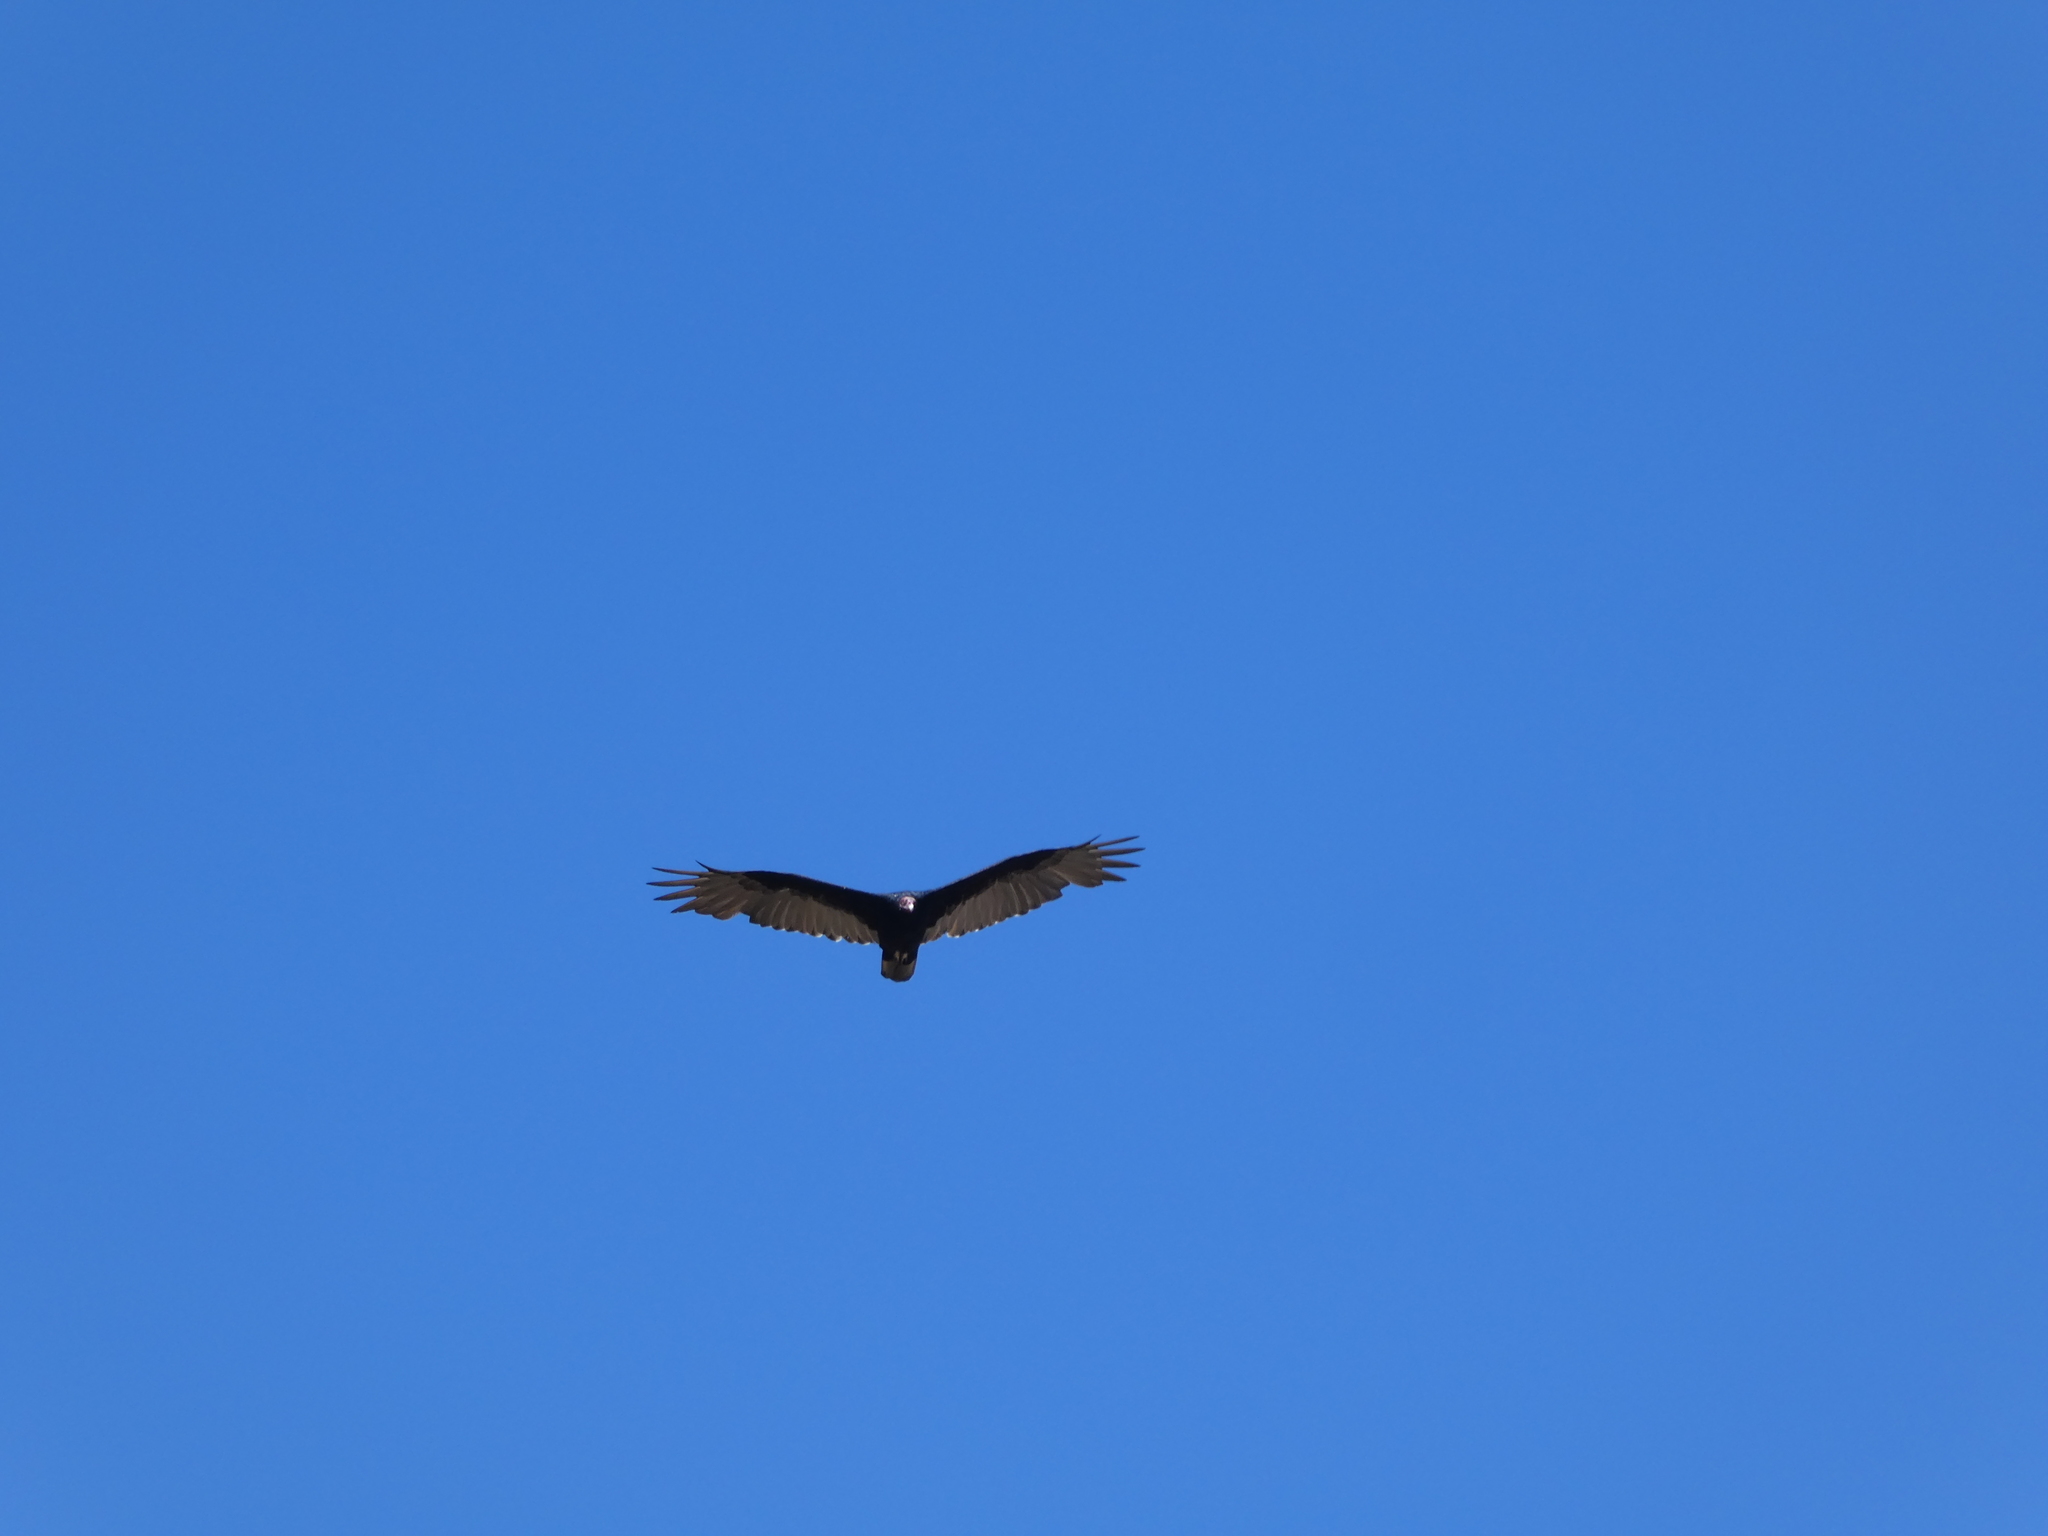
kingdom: Animalia
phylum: Chordata
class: Aves
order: Accipitriformes
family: Cathartidae
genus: Cathartes
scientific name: Cathartes aura
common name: Turkey vulture
